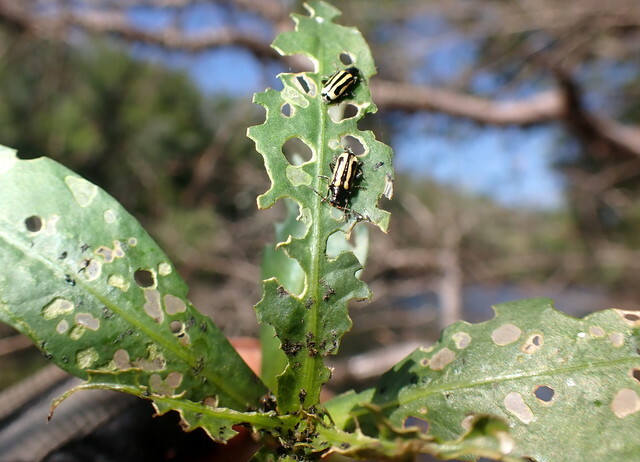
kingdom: Animalia
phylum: Arthropoda
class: Insecta
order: Coleoptera
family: Chrysomelidae
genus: Agasicles
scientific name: Agasicles hygrophila
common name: Alligatorweed flea beetle
